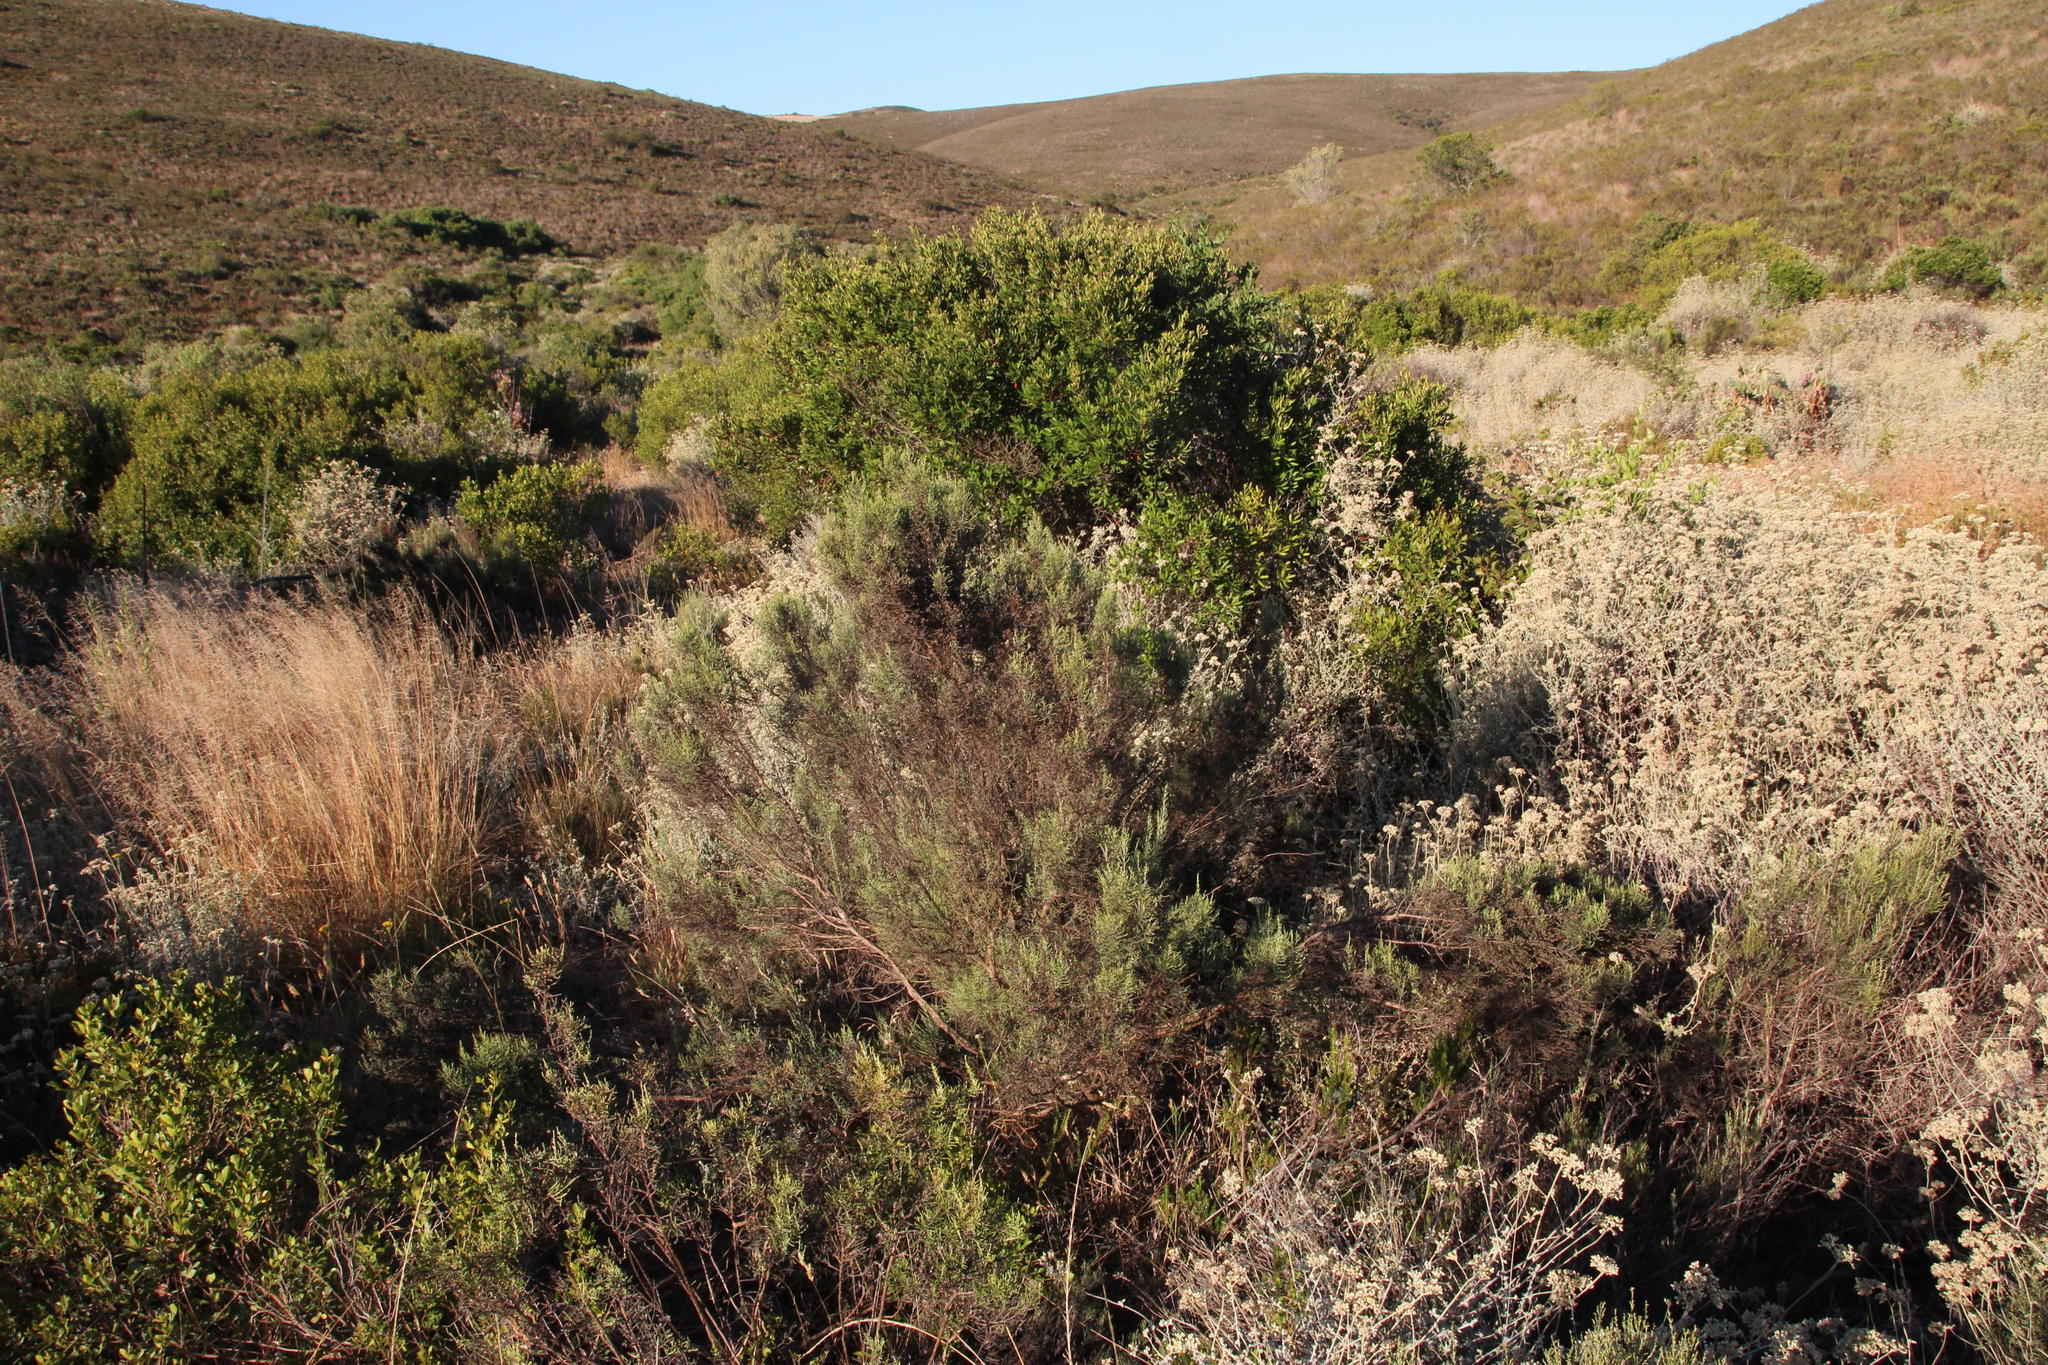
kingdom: Plantae
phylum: Tracheophyta
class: Magnoliopsida
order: Asterales
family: Asteraceae
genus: Dicerothamnus
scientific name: Dicerothamnus rhinocerotis
